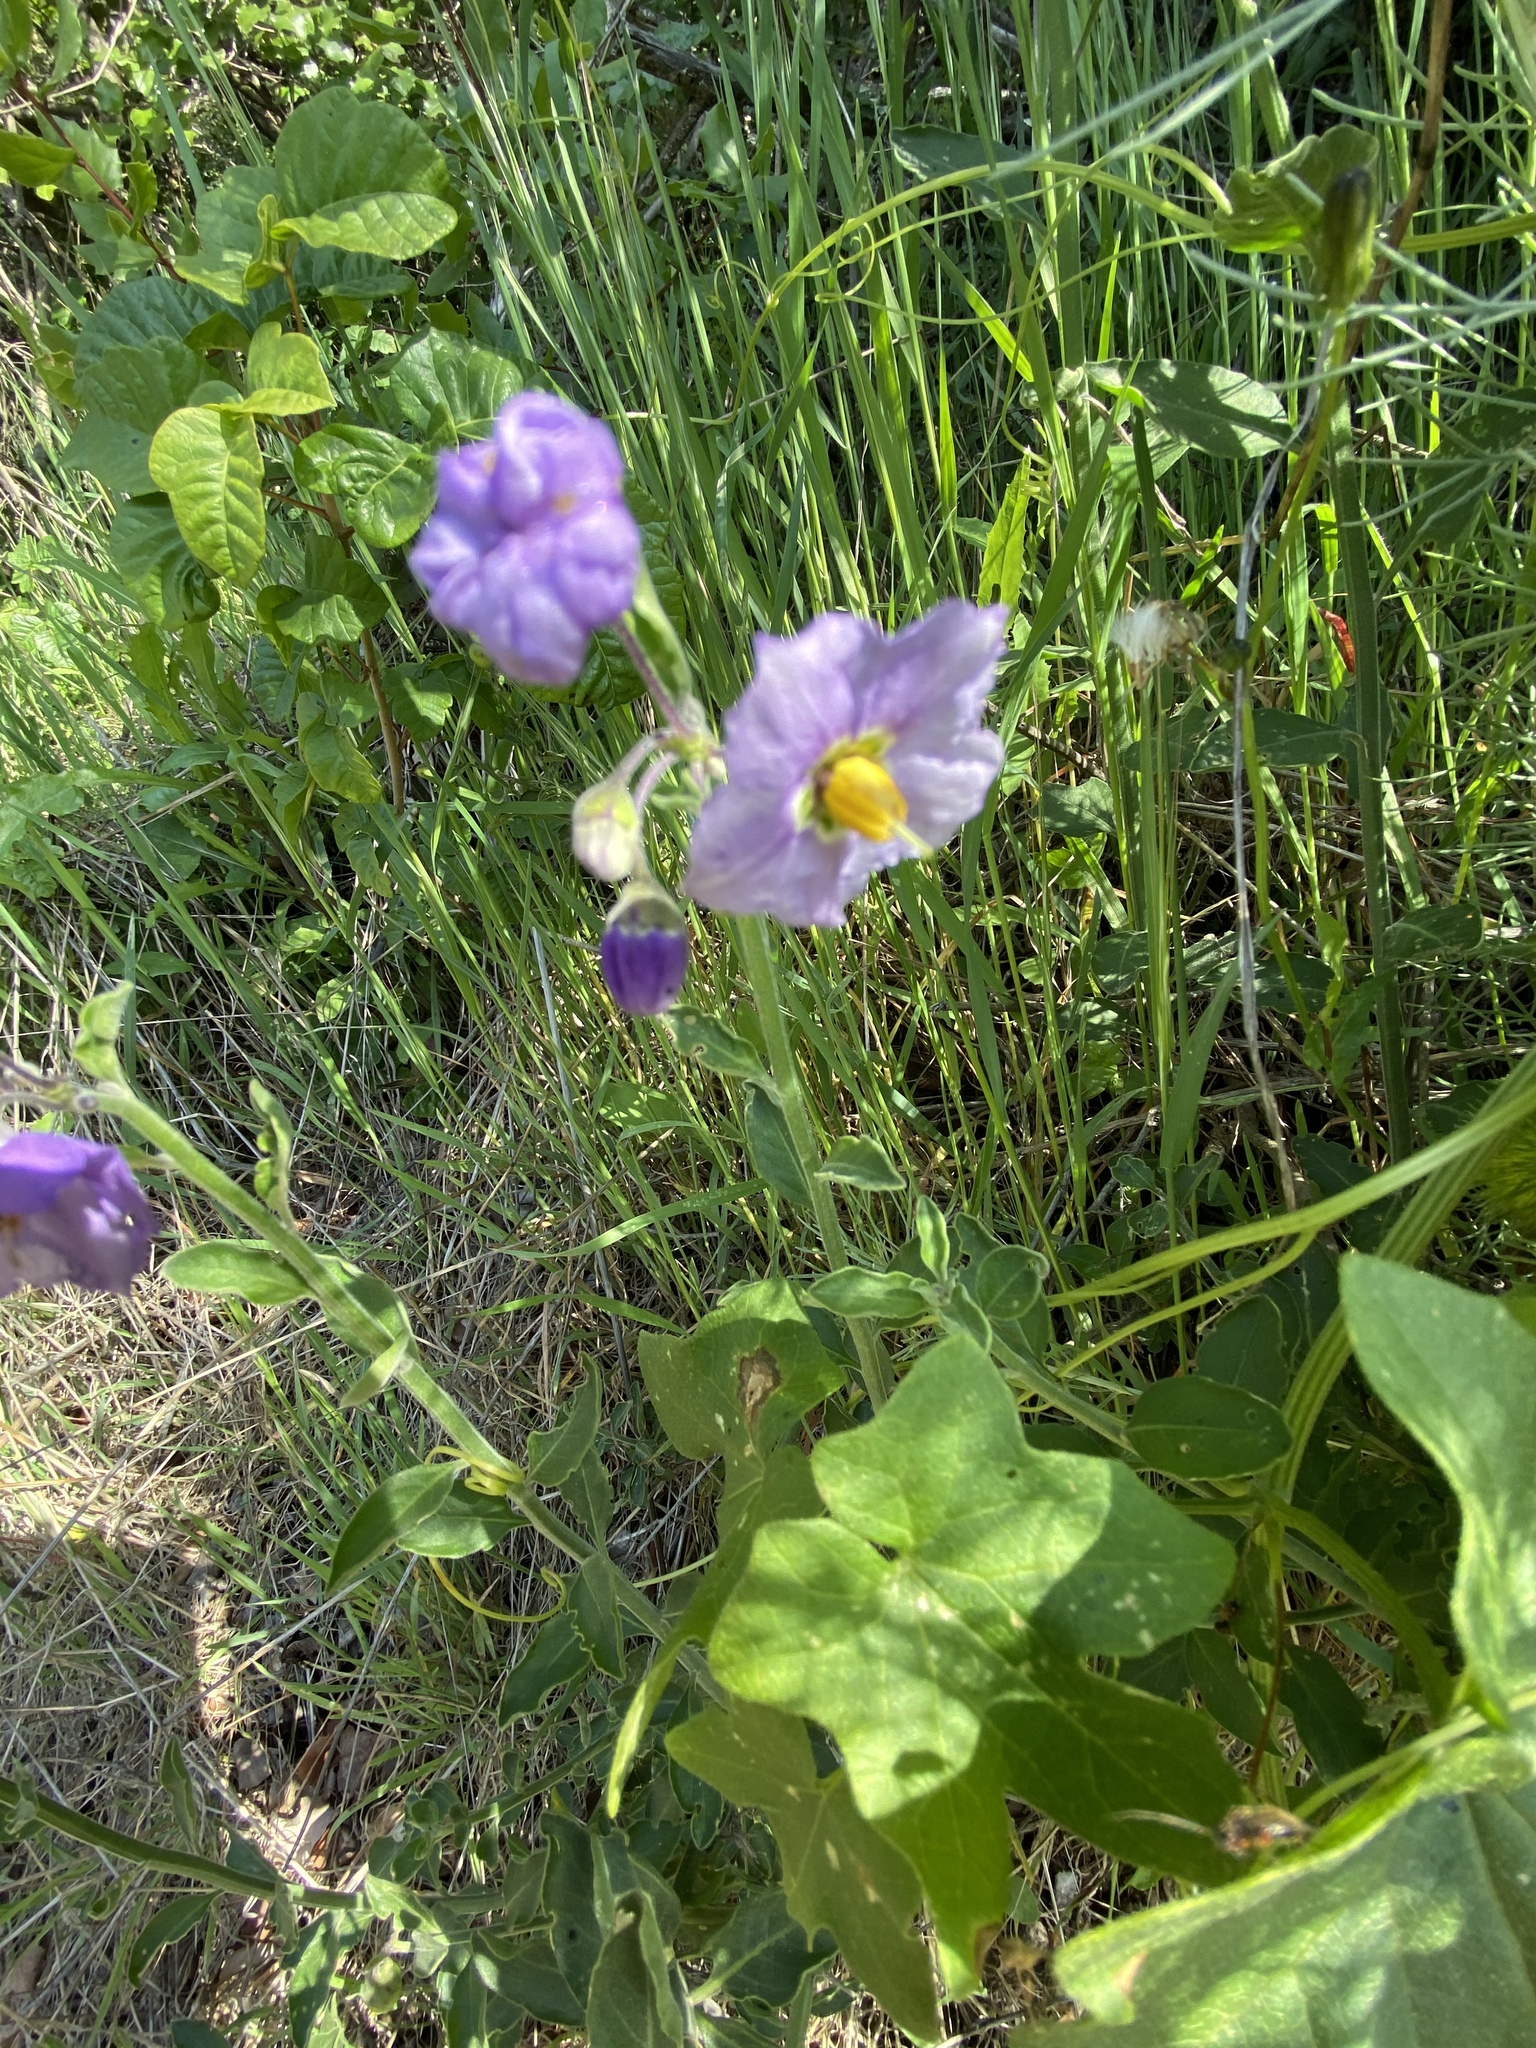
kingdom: Plantae
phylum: Tracheophyta
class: Magnoliopsida
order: Solanales
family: Solanaceae
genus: Solanum
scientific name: Solanum umbelliferum
